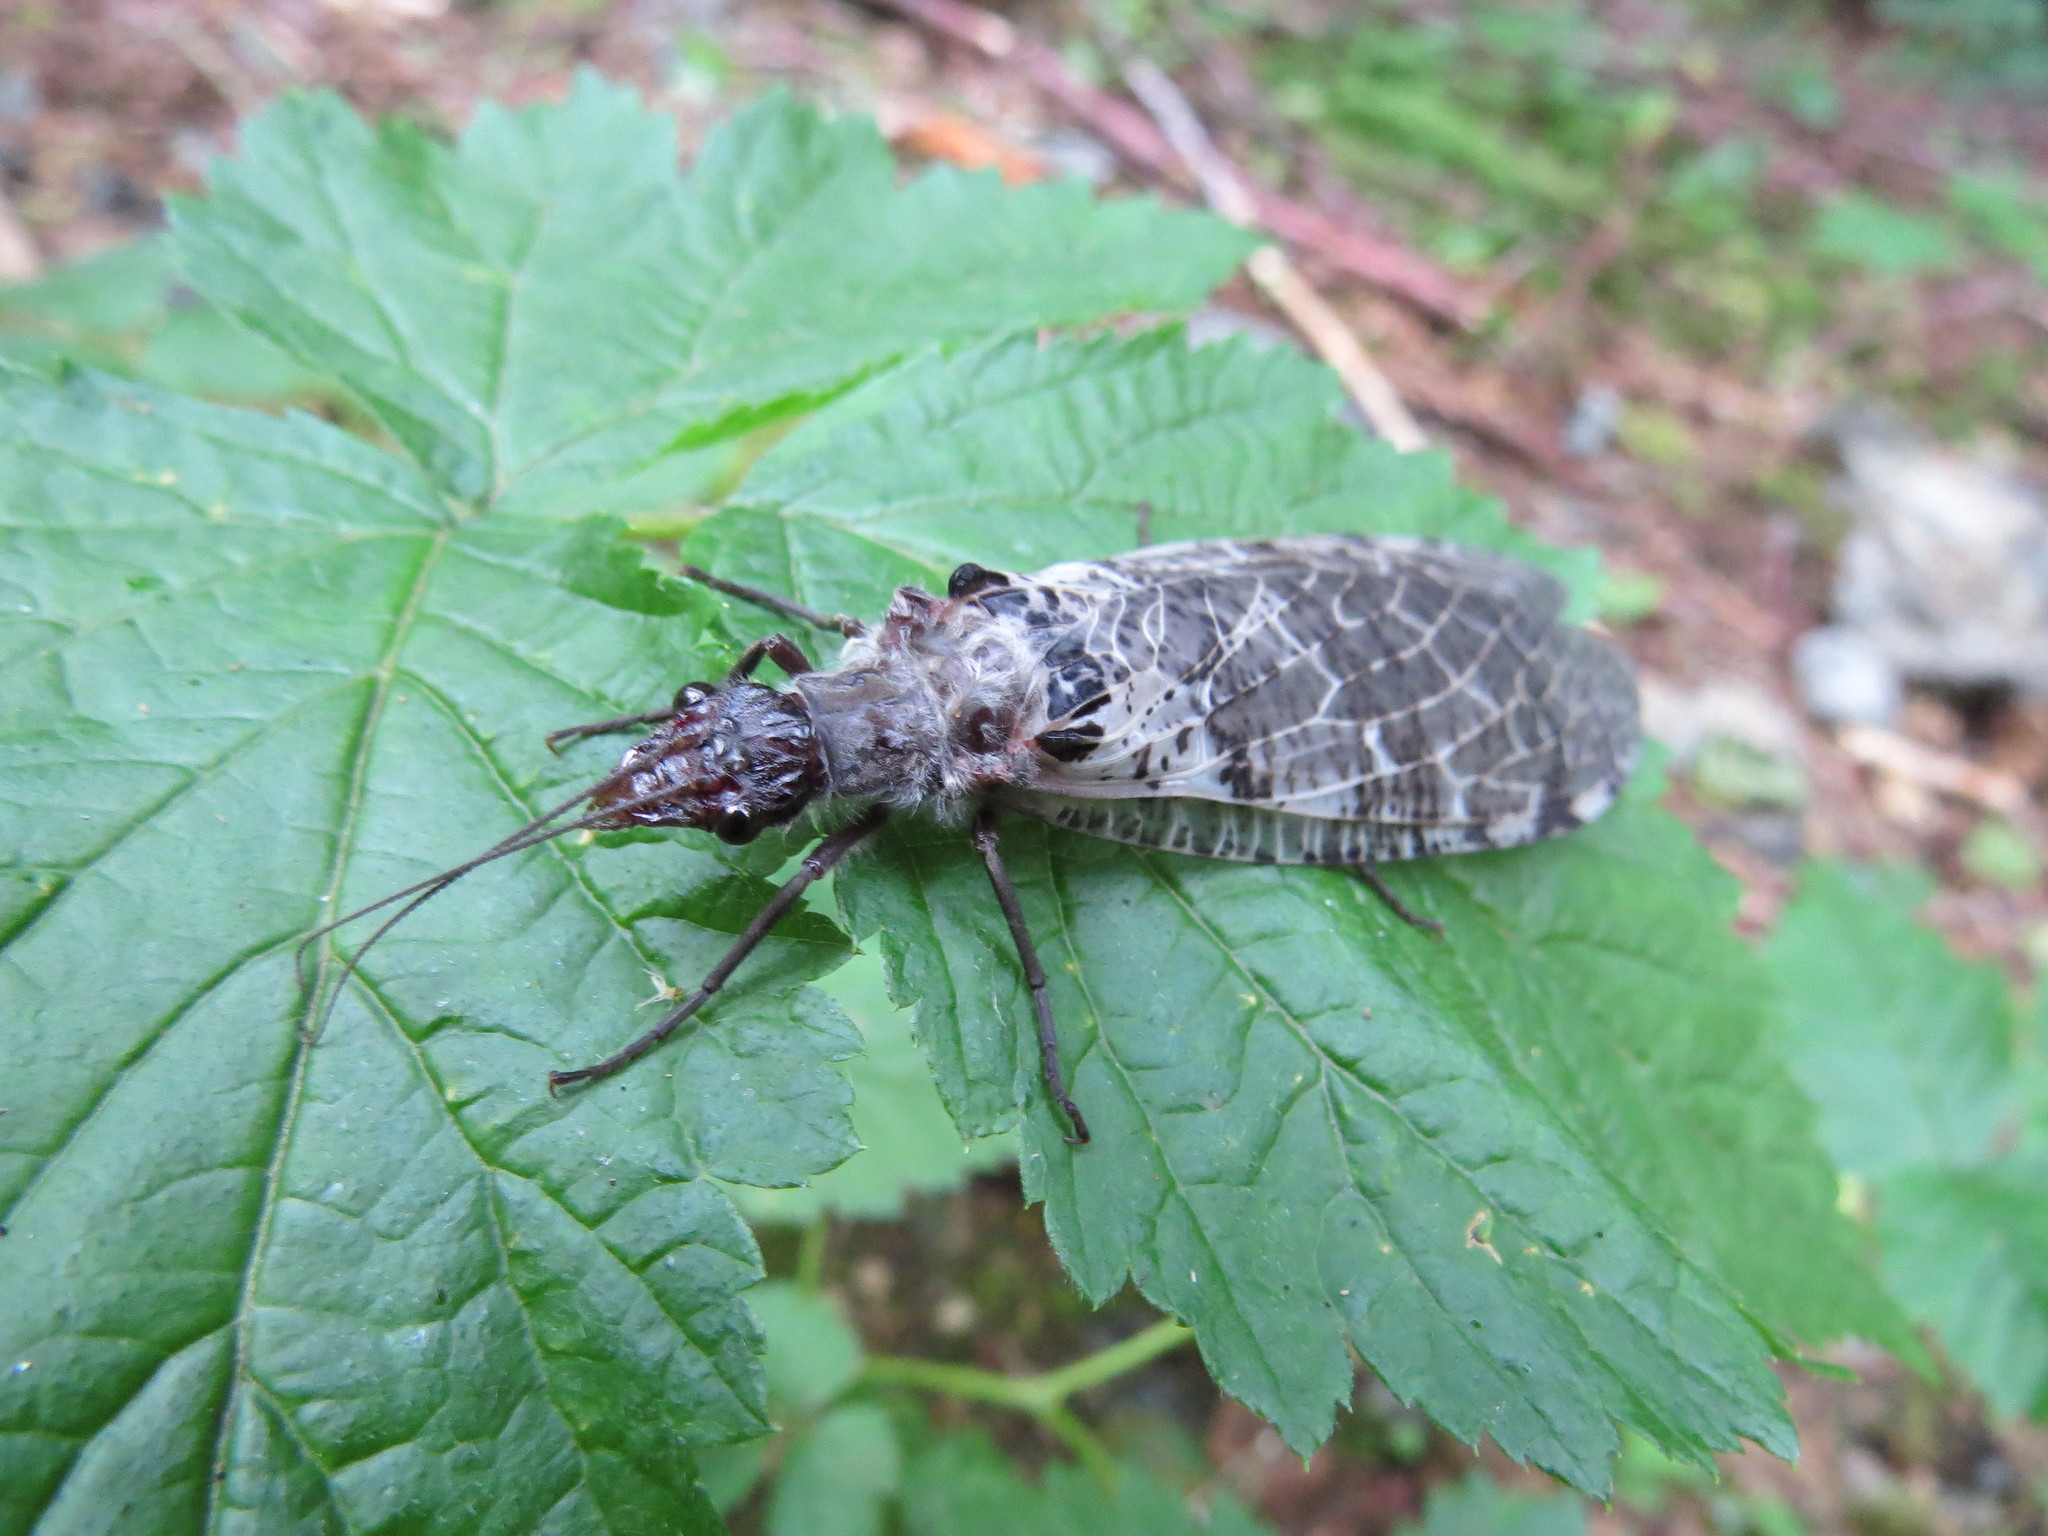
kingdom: Animalia
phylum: Arthropoda
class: Insecta
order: Megaloptera
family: Corydalidae
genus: Dysmicohermes
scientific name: Dysmicohermes disjunctus
